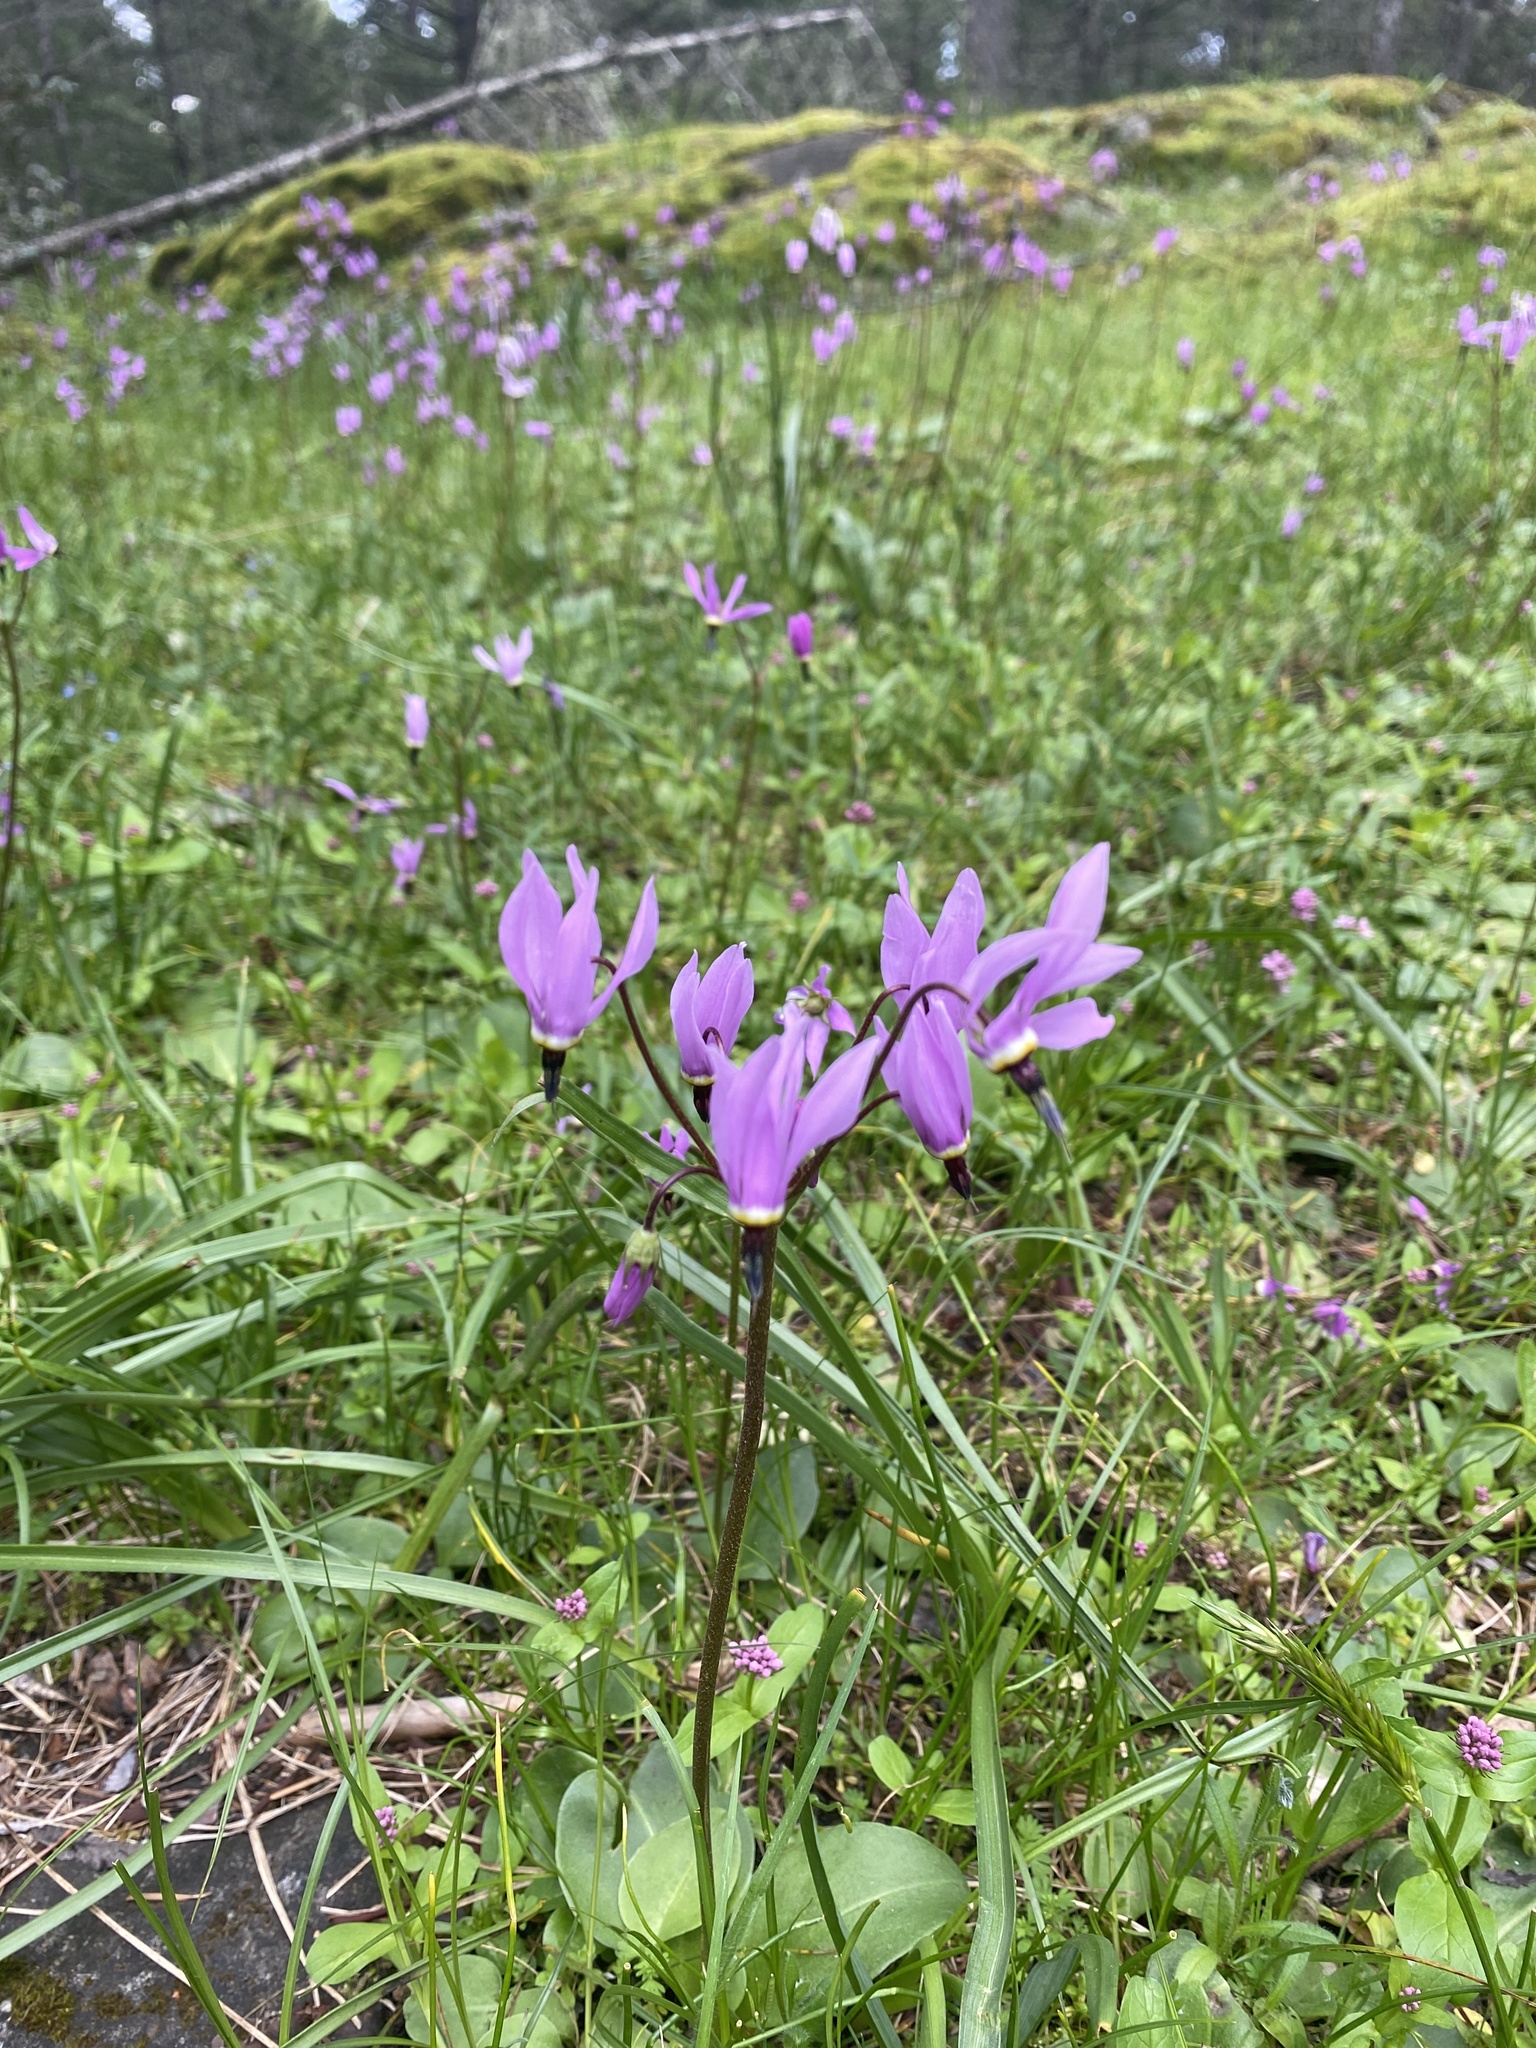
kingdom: Plantae
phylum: Tracheophyta
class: Magnoliopsida
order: Ericales
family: Primulaceae
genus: Dodecatheon
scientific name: Dodecatheon hendersonii
